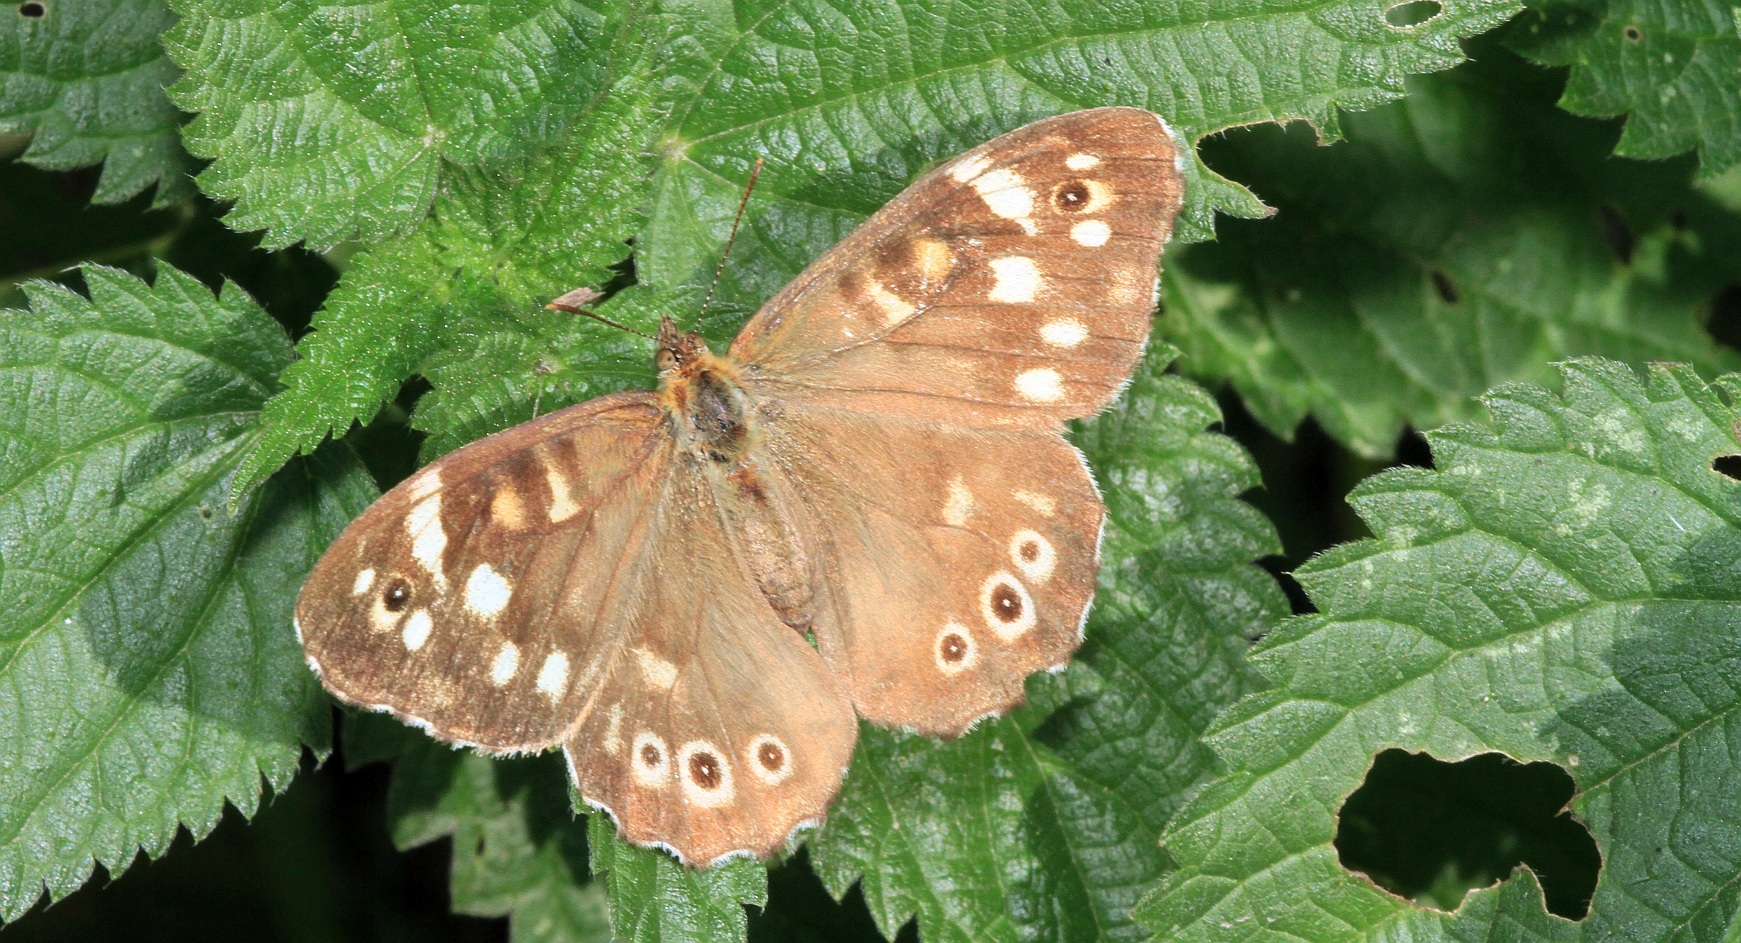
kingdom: Animalia
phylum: Arthropoda
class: Insecta
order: Lepidoptera
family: Nymphalidae
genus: Pararge
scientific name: Pararge aegeria
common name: Speckled wood
